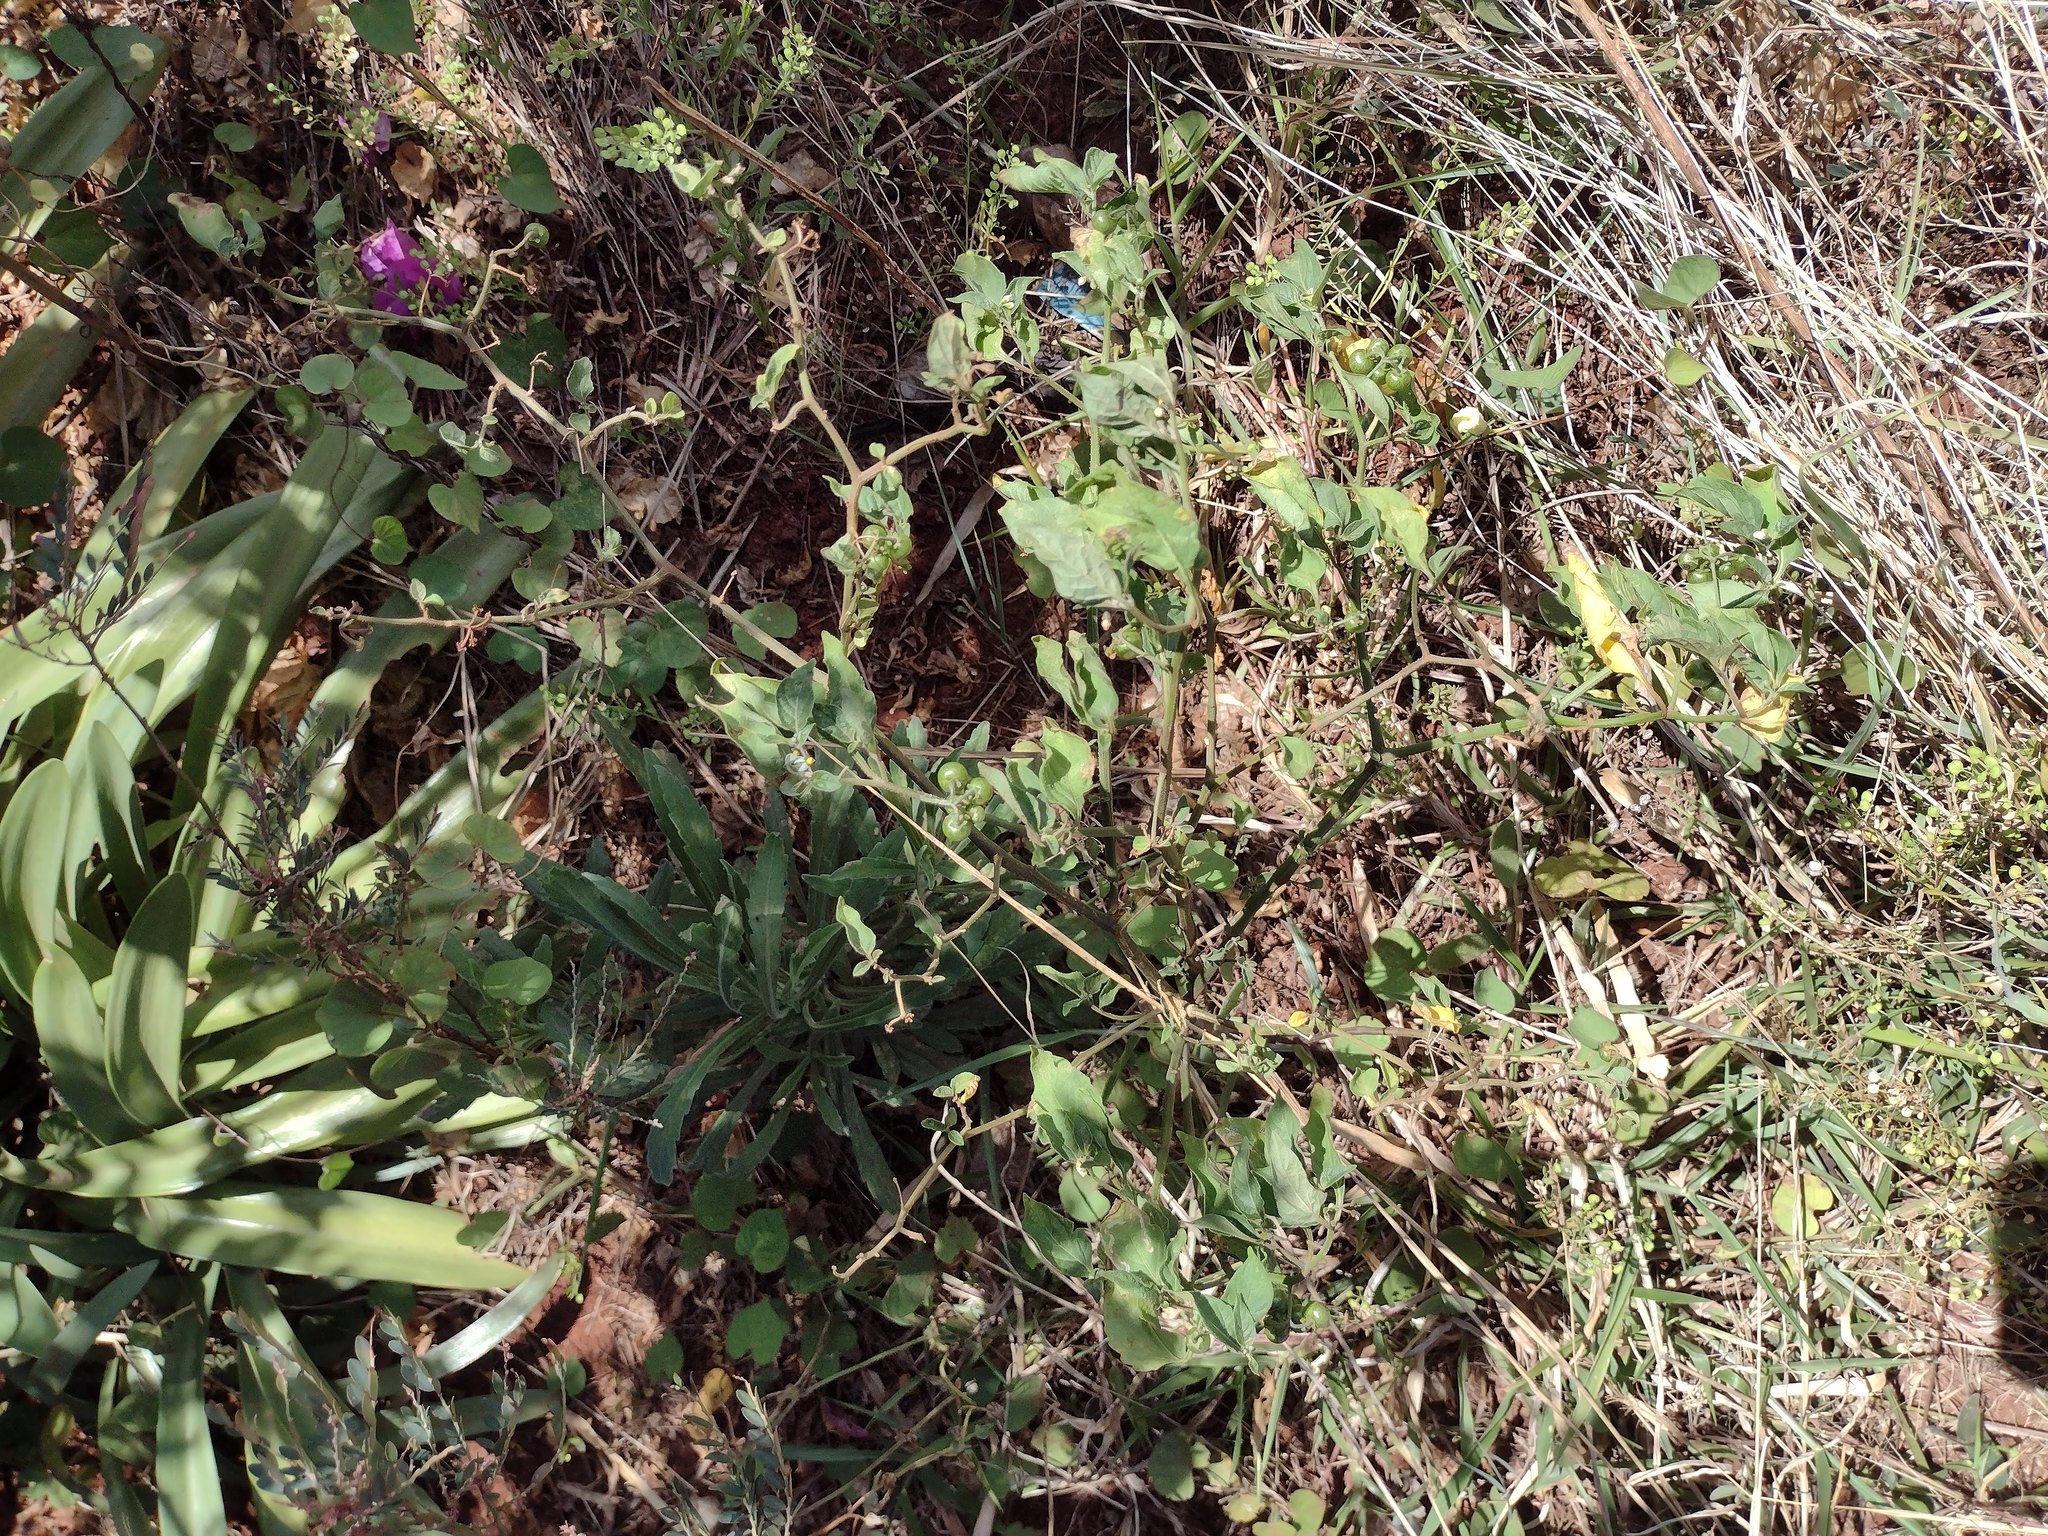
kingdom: Plantae
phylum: Tracheophyta
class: Magnoliopsida
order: Solanales
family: Solanaceae
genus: Solanum
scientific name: Solanum americanum
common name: American black nightshade
